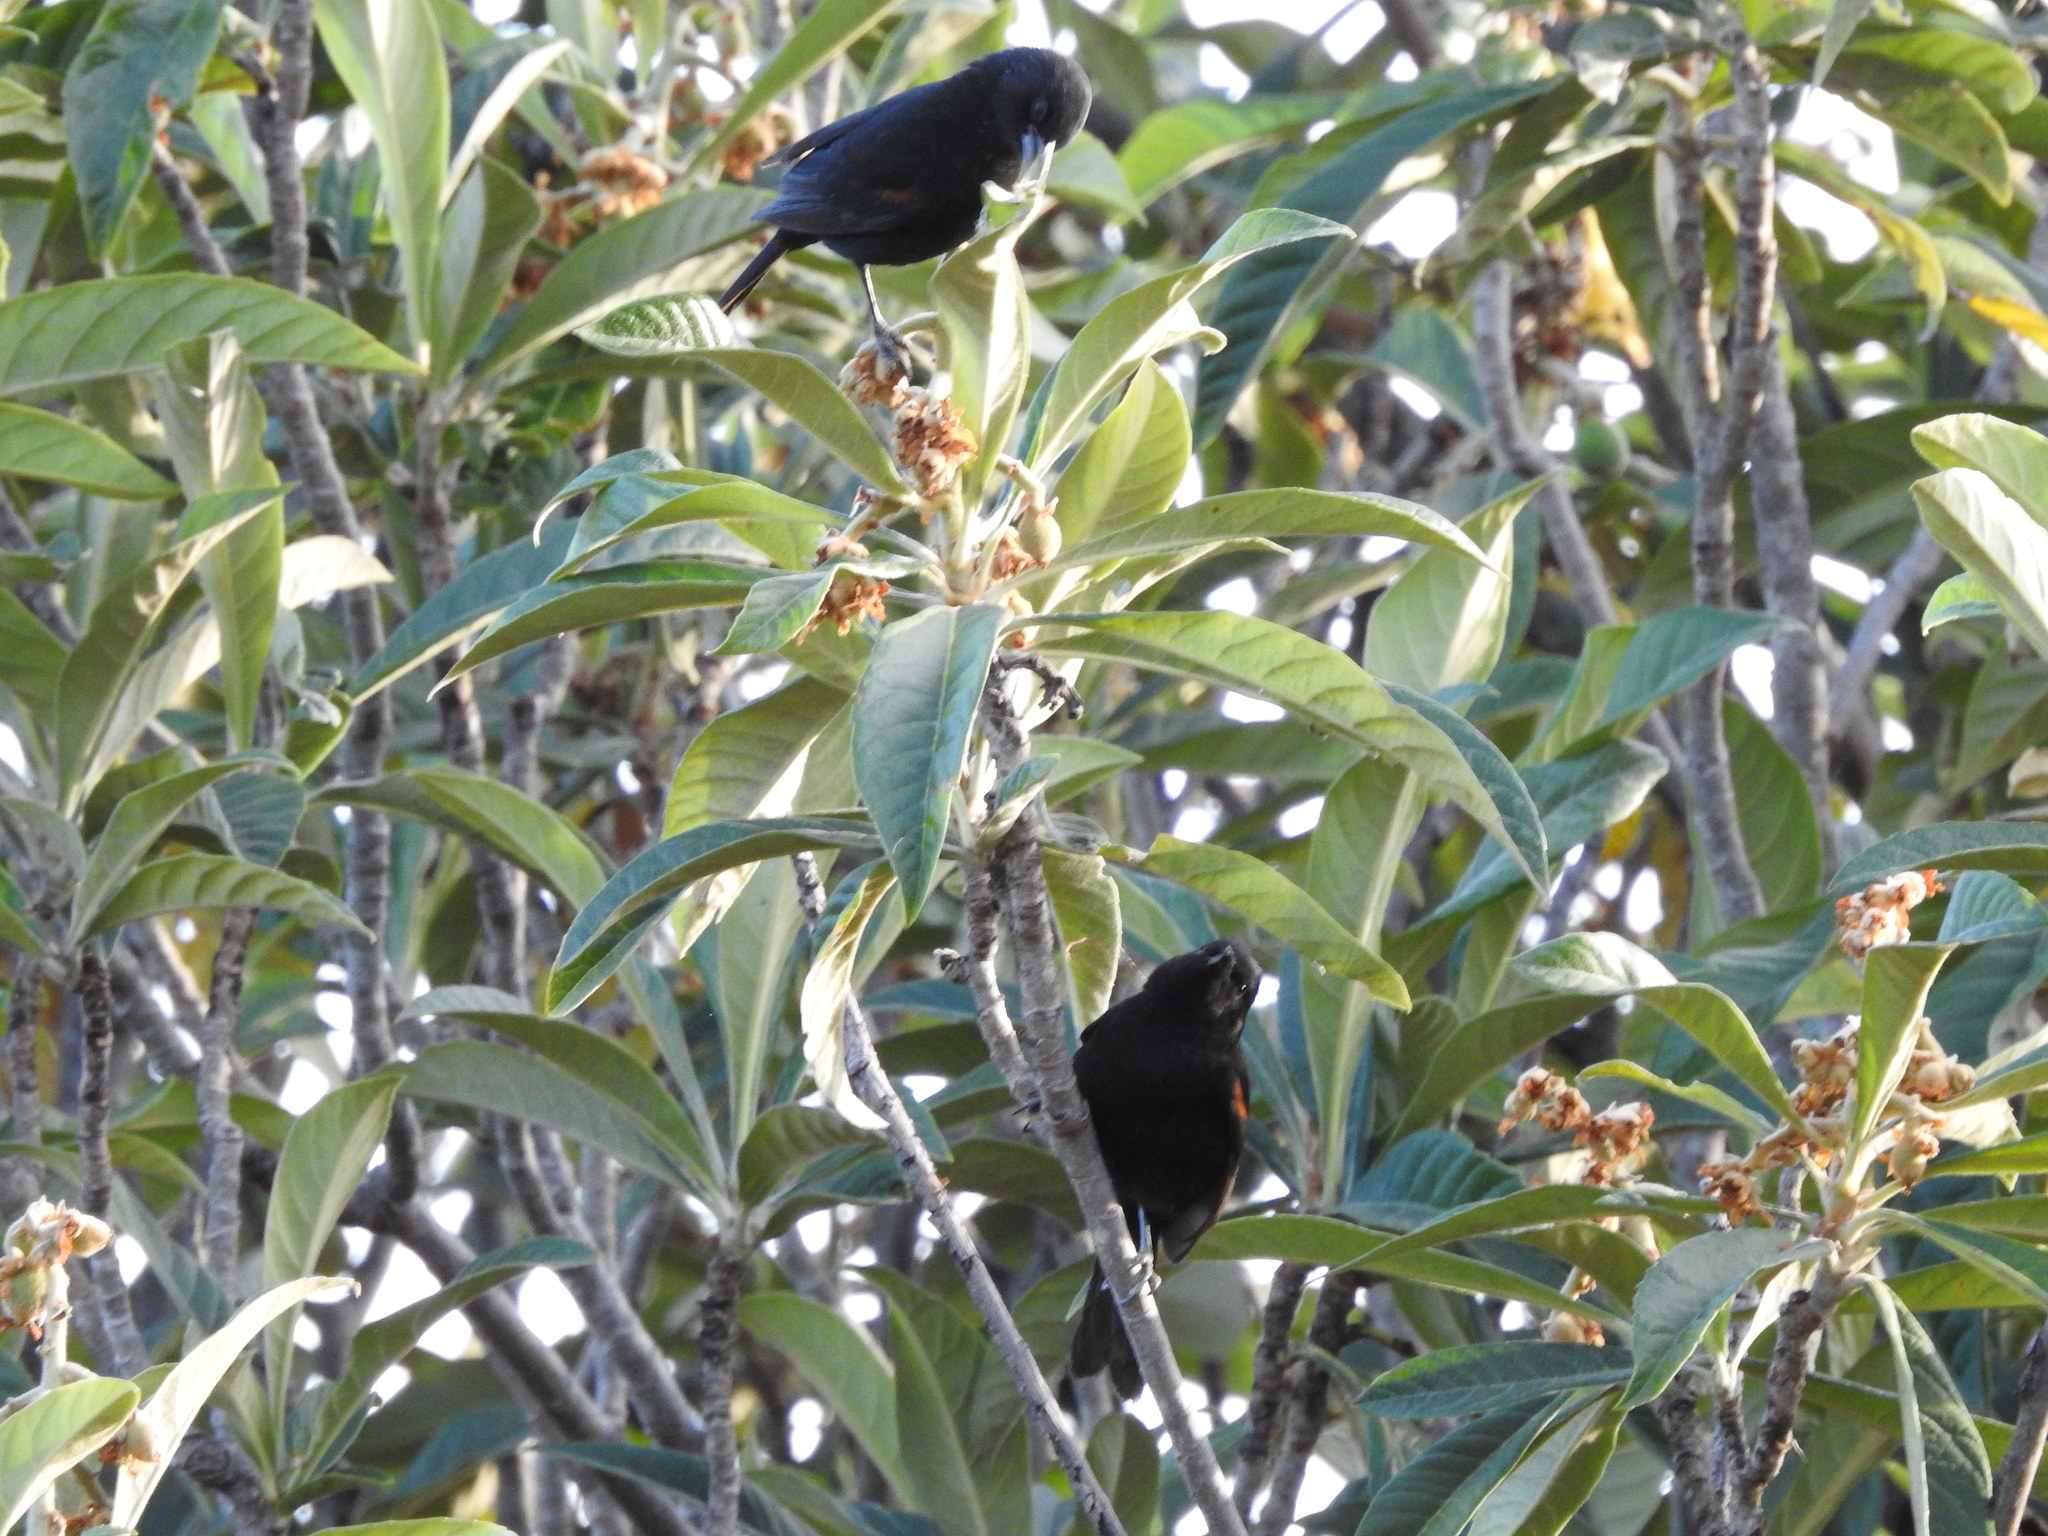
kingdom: Animalia
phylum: Chordata
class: Aves
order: Passeriformes
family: Icteridae
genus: Icterus
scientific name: Icterus cayanensis
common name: Epaulet oriole
